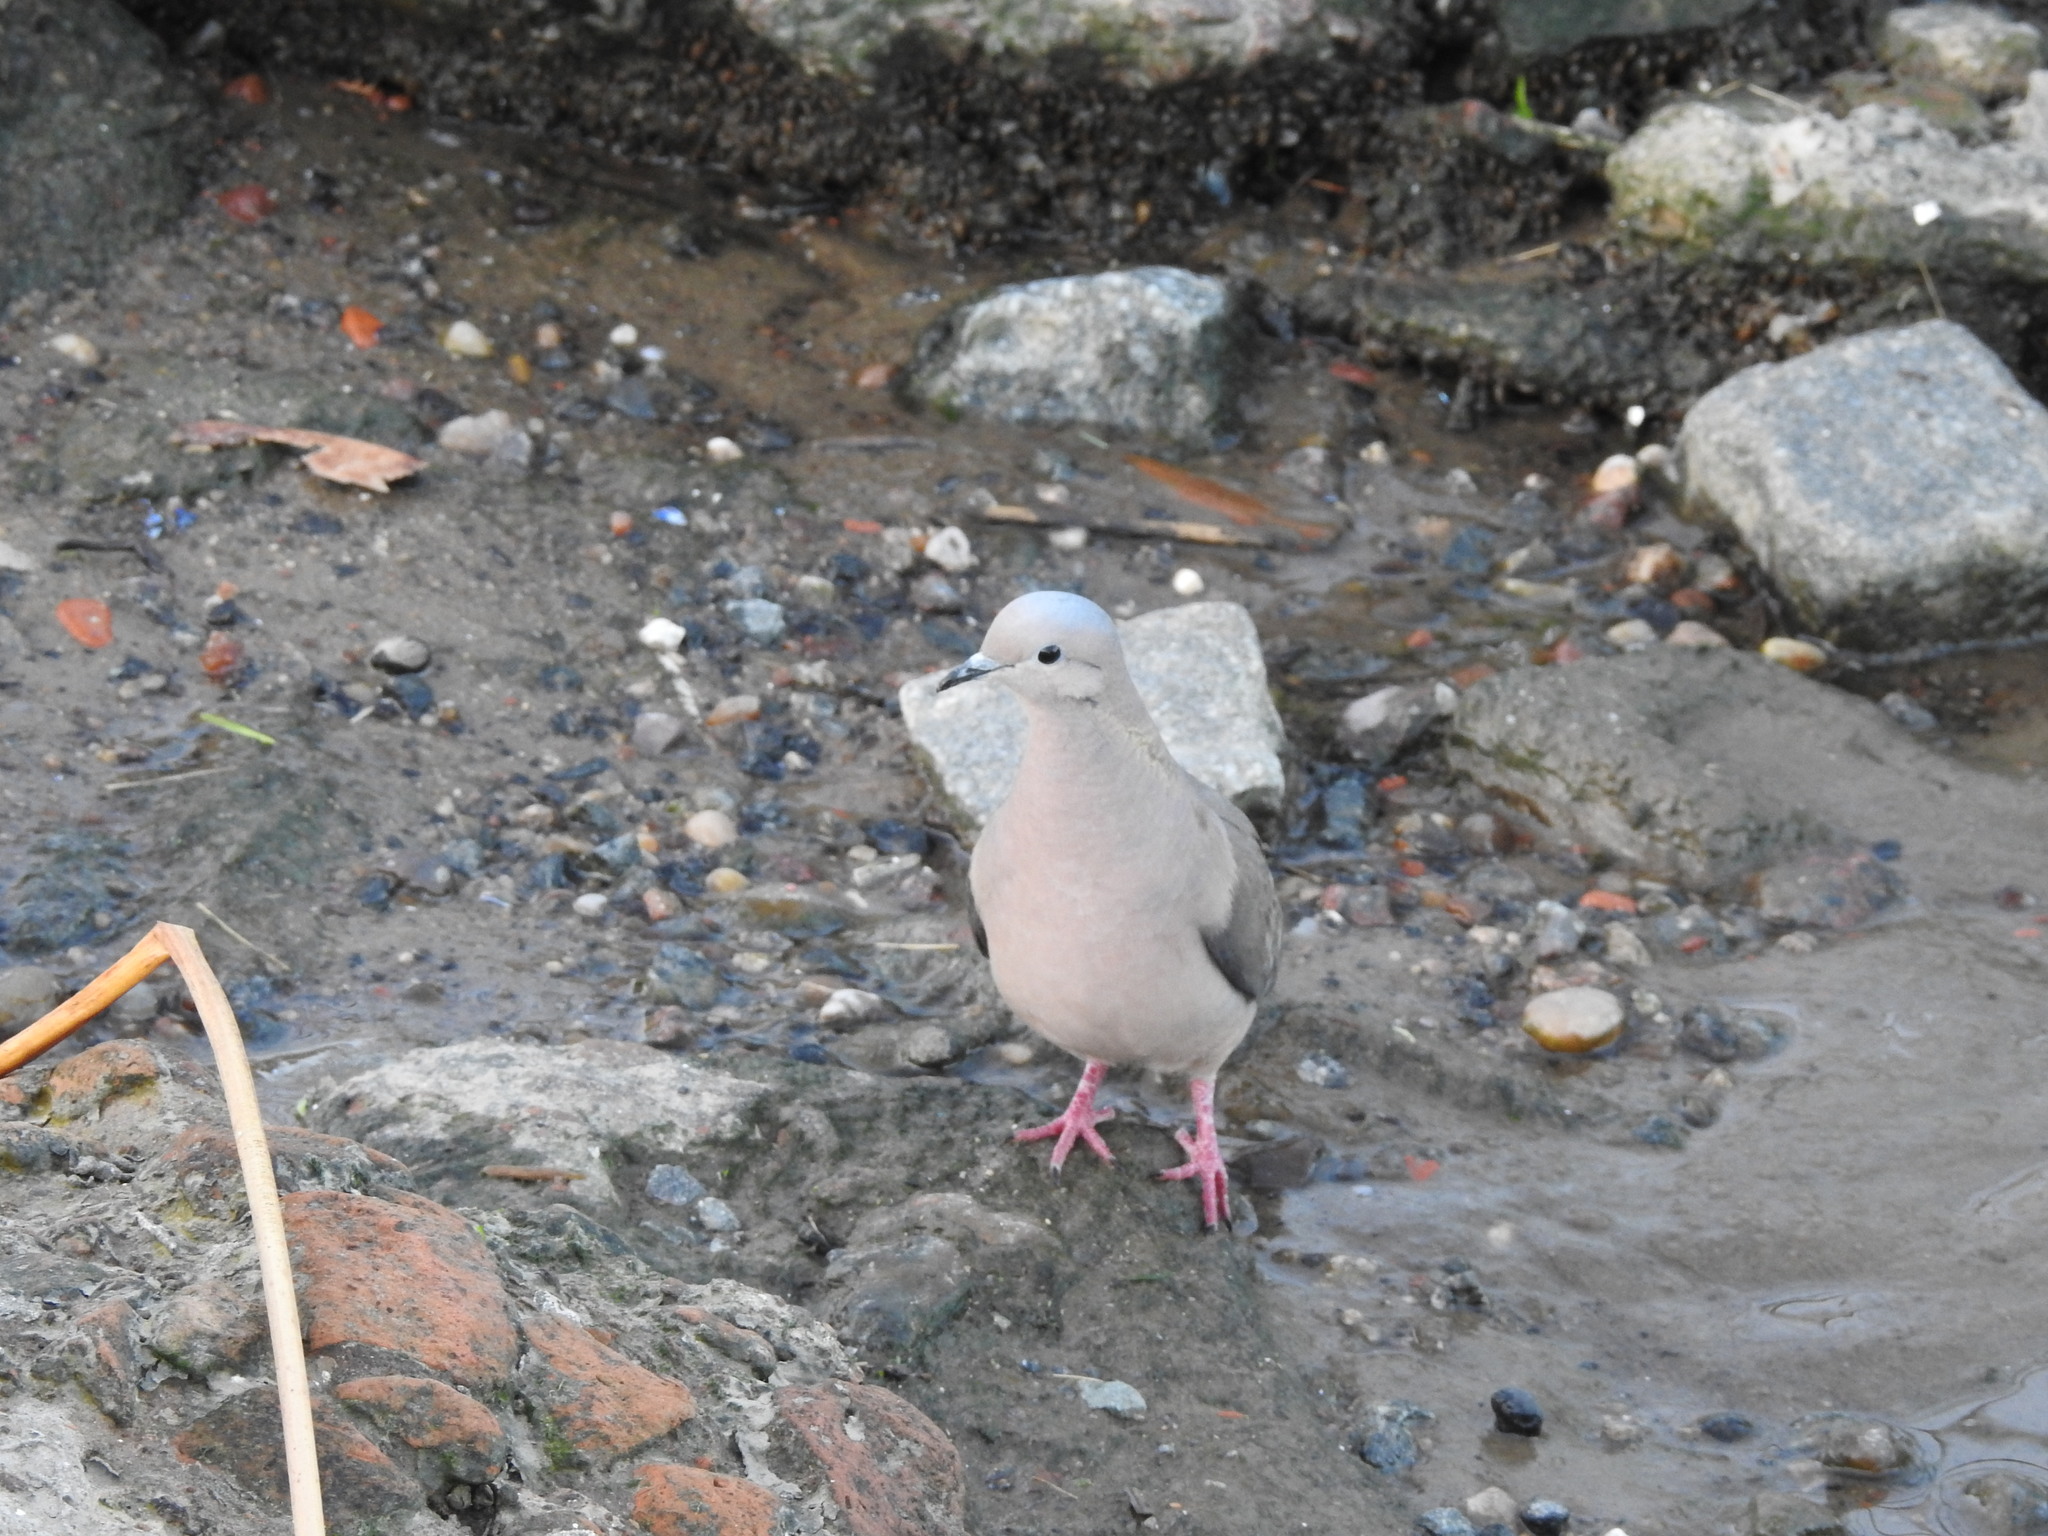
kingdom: Animalia
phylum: Chordata
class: Aves
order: Columbiformes
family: Columbidae
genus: Zenaida
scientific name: Zenaida auriculata
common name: Eared dove
